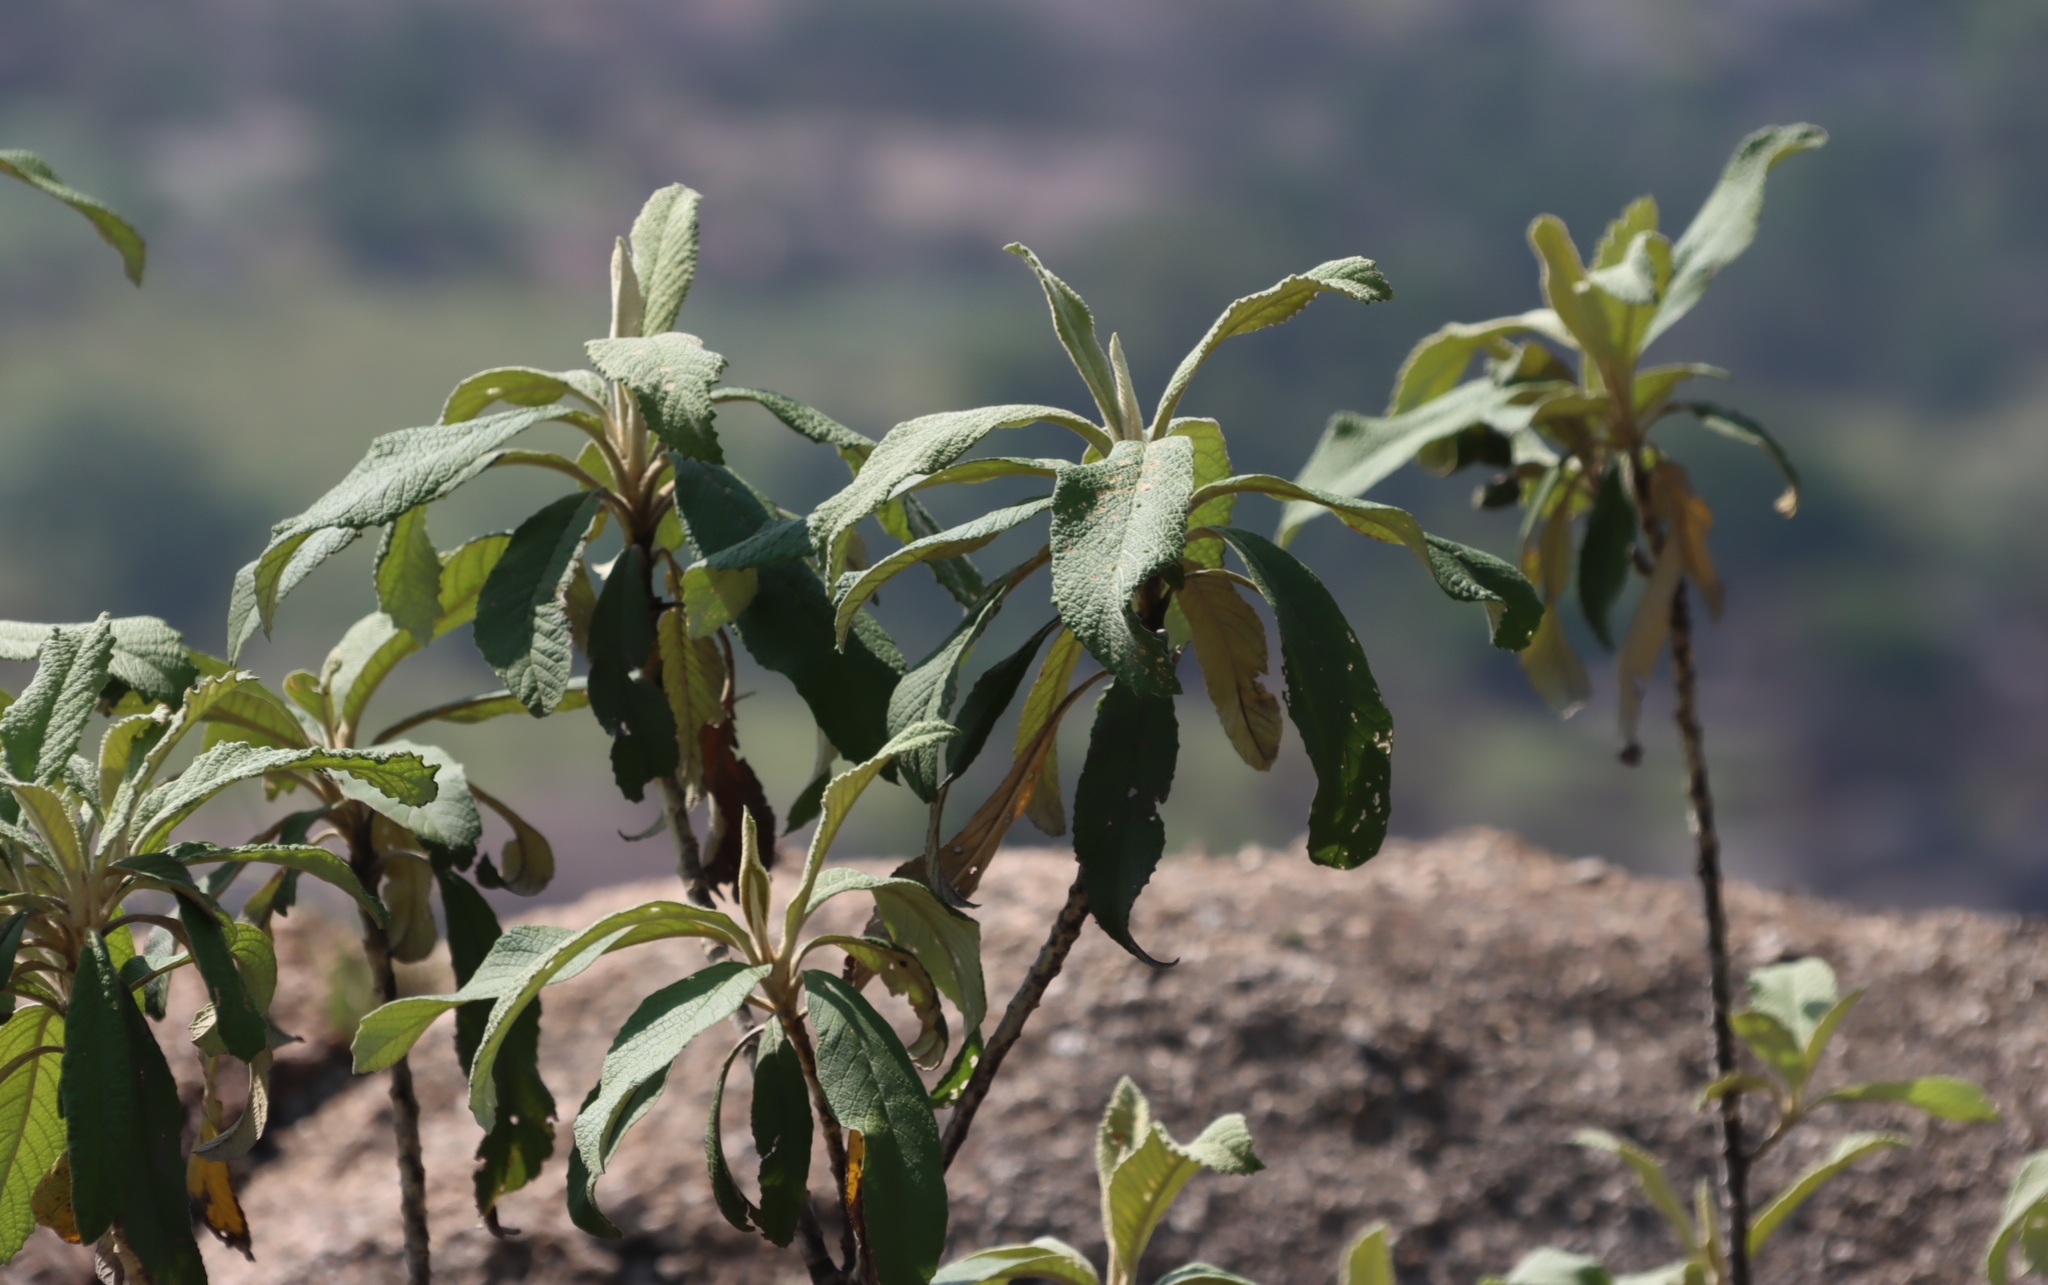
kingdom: Plantae
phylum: Tracheophyta
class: Magnoliopsida
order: Asterales
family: Asteraceae
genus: Tarchonanthus
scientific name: Tarchonanthus trilobus
